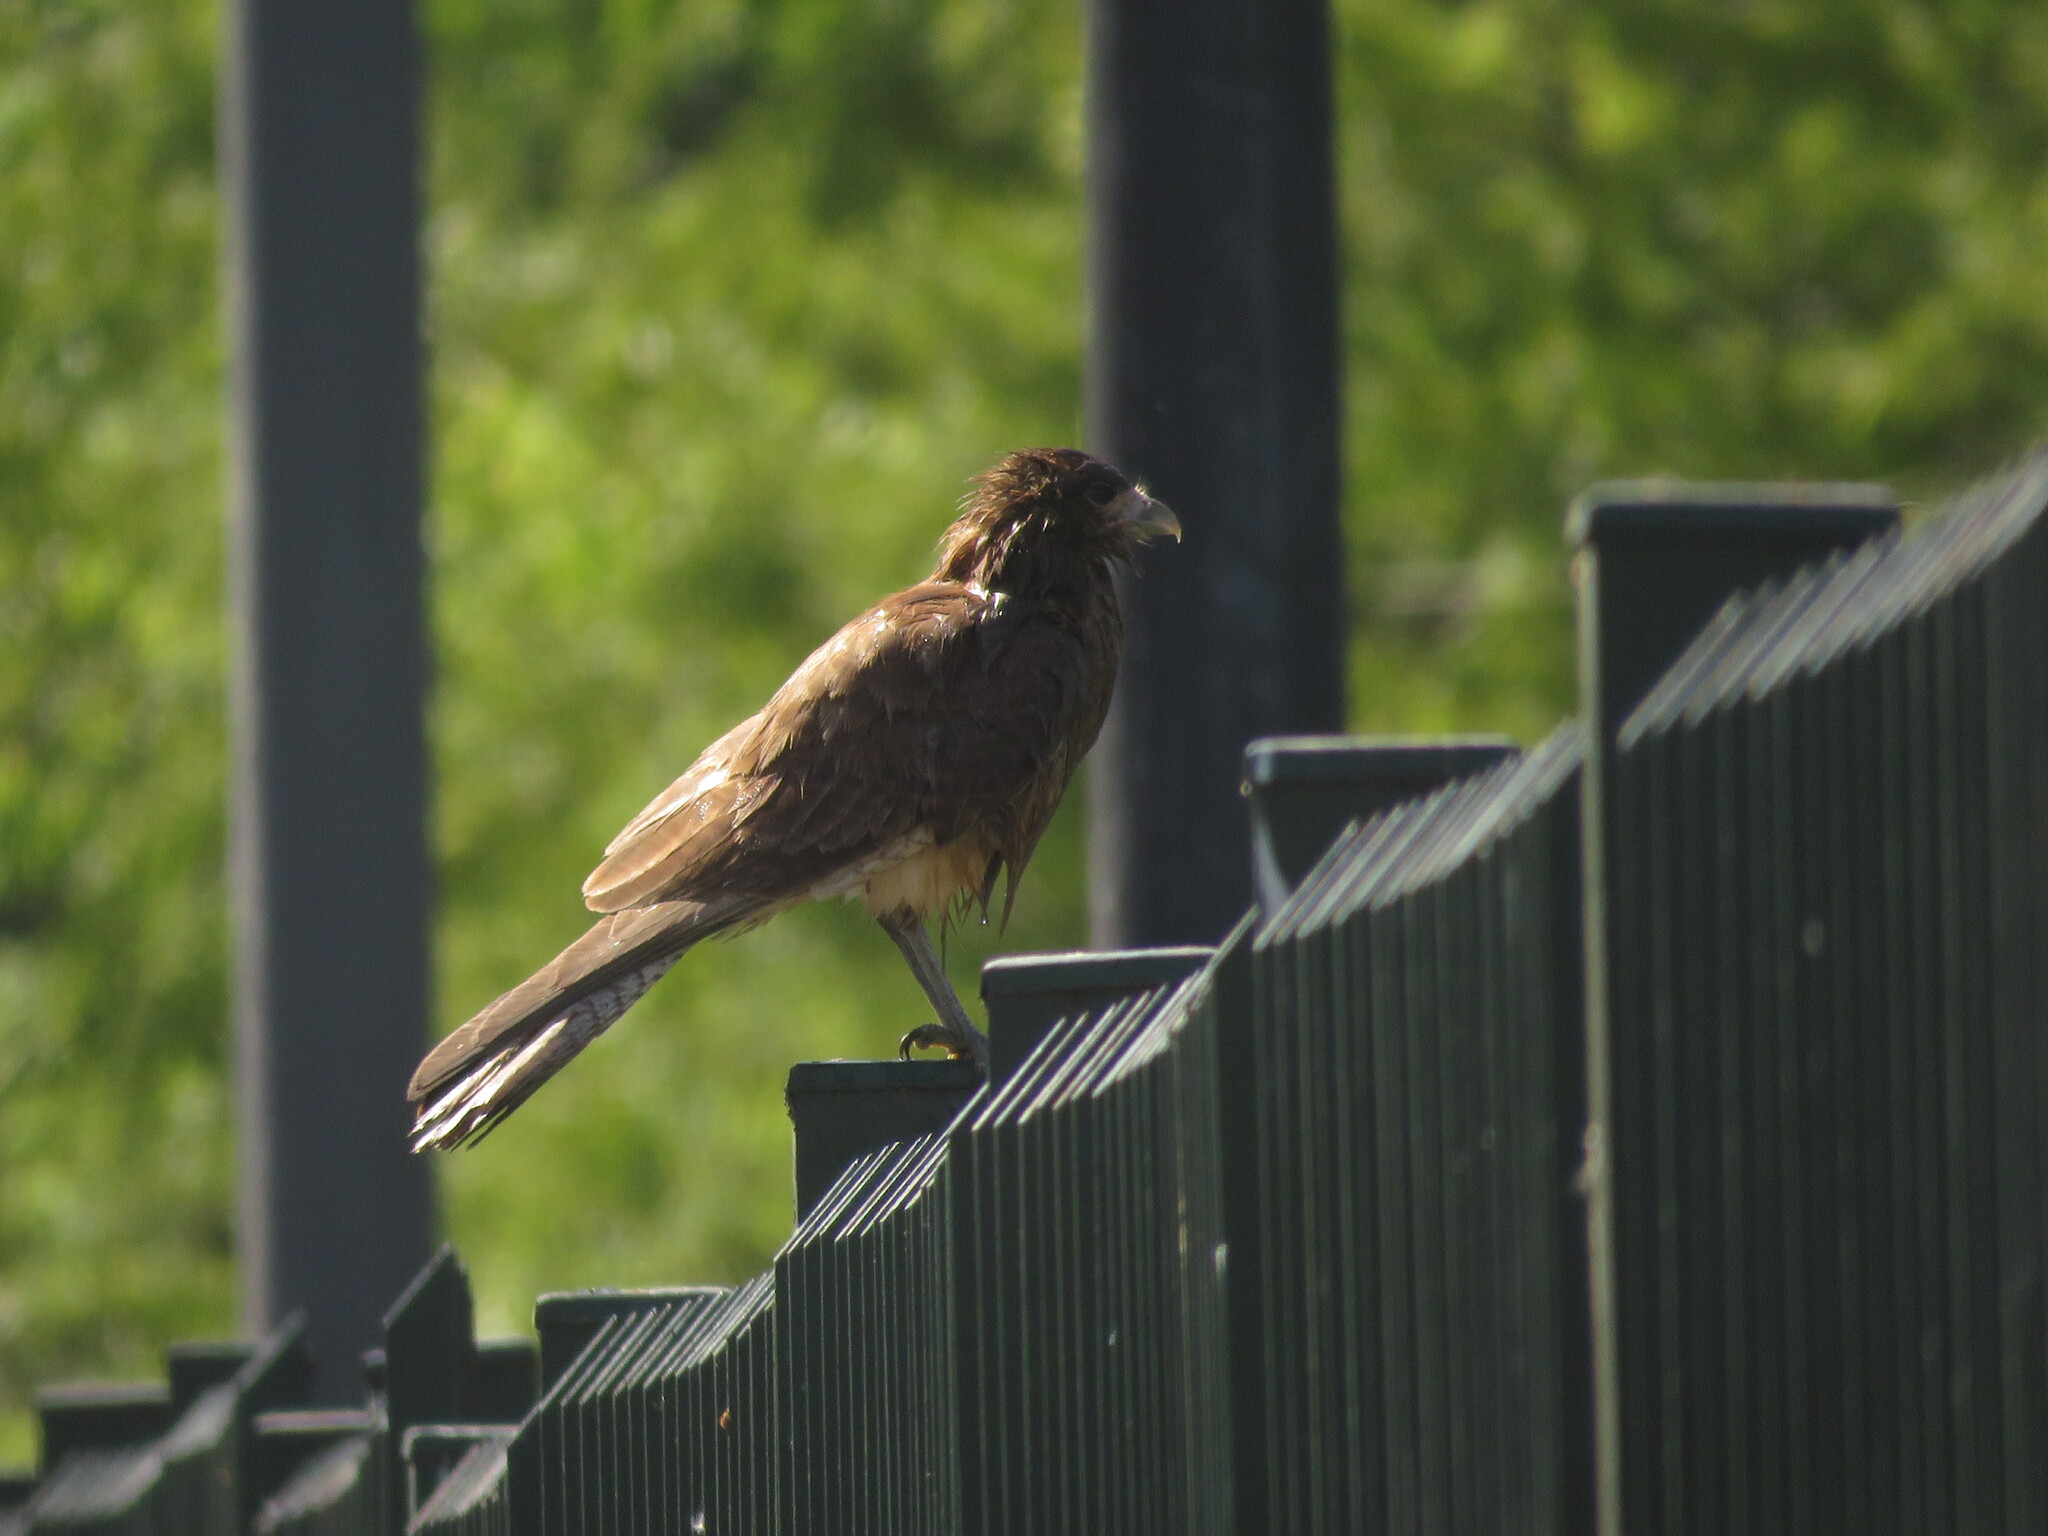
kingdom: Animalia
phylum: Chordata
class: Aves
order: Falconiformes
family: Falconidae
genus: Daptrius
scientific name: Daptrius
